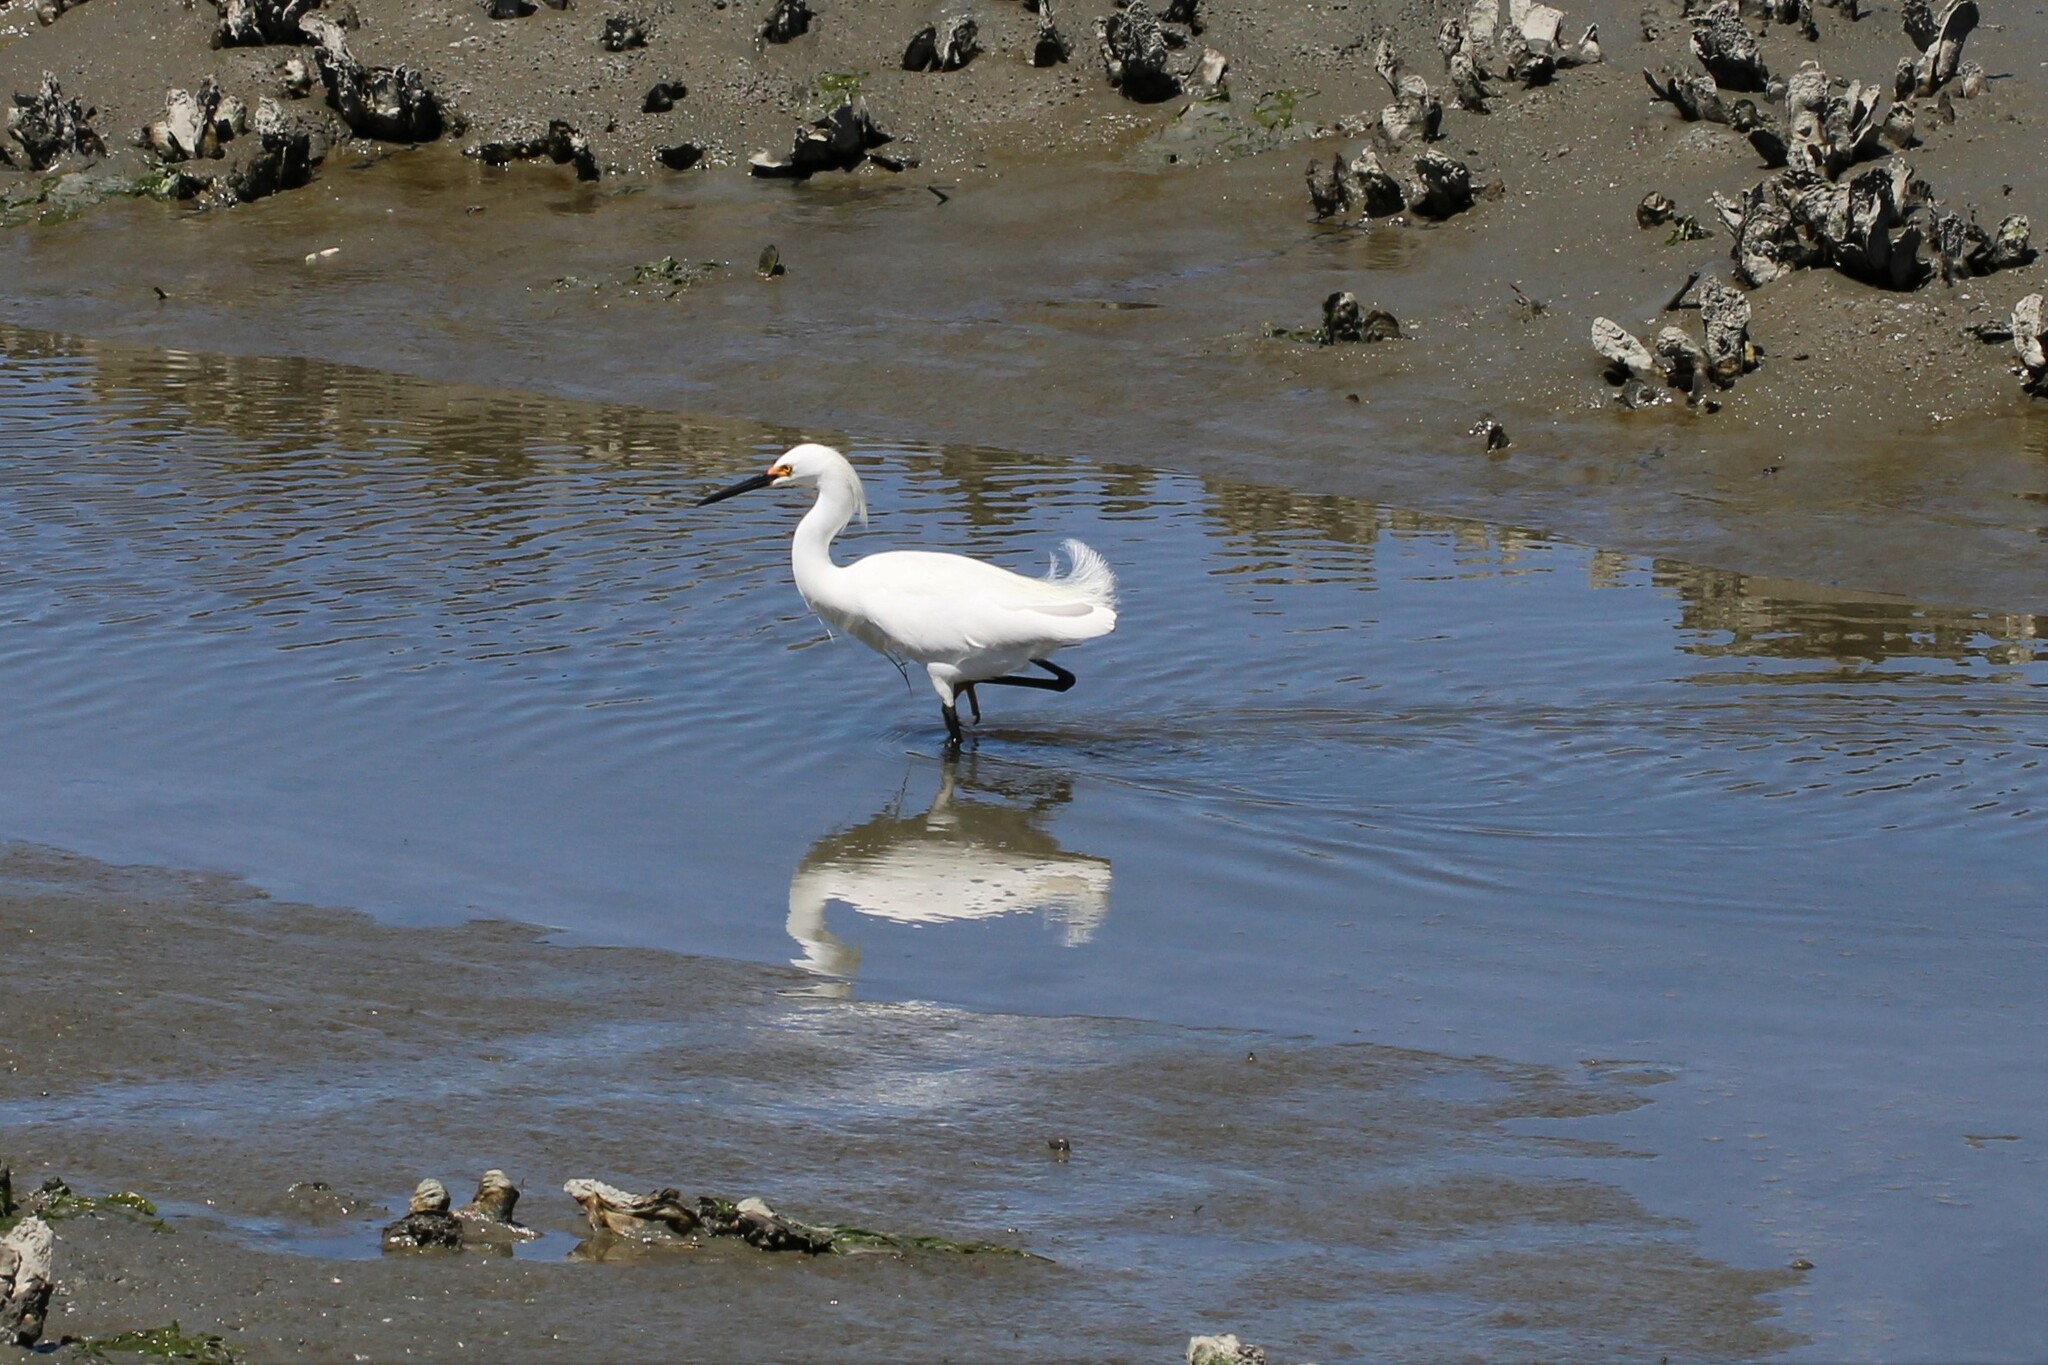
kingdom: Animalia
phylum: Chordata
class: Aves
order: Pelecaniformes
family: Ardeidae
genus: Egretta
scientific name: Egretta thula
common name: Snowy egret
